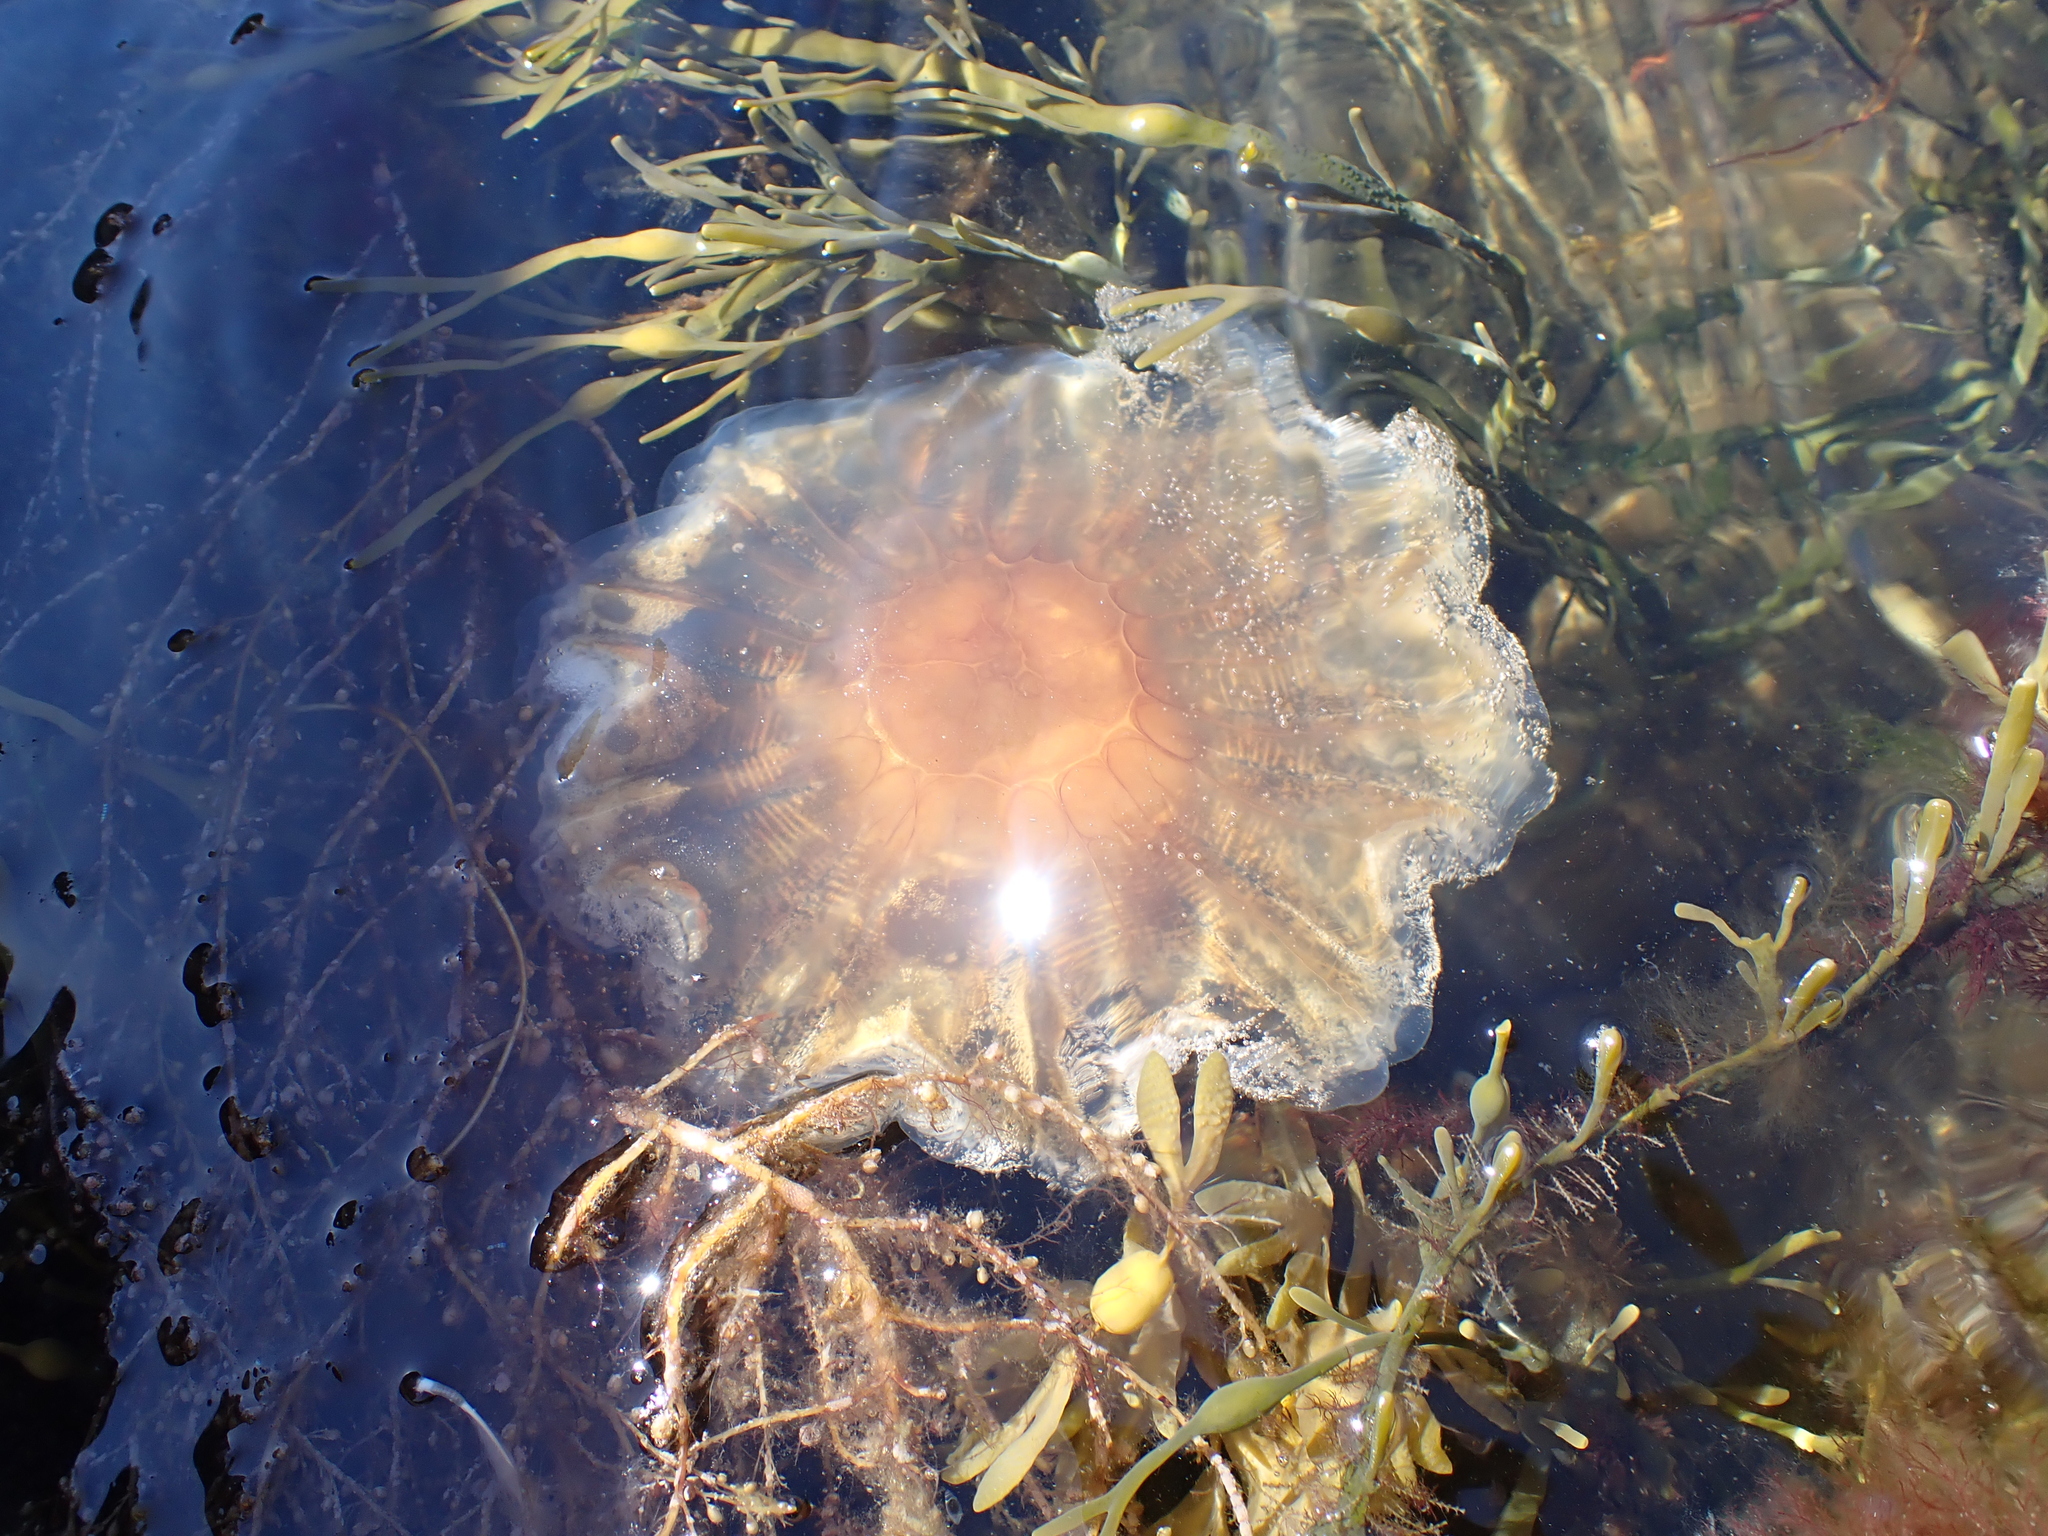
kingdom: Animalia
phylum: Cnidaria
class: Scyphozoa
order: Semaeostomeae
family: Cyaneidae
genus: Cyanea
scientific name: Cyanea capillata
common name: Lion's mane jellyfish
